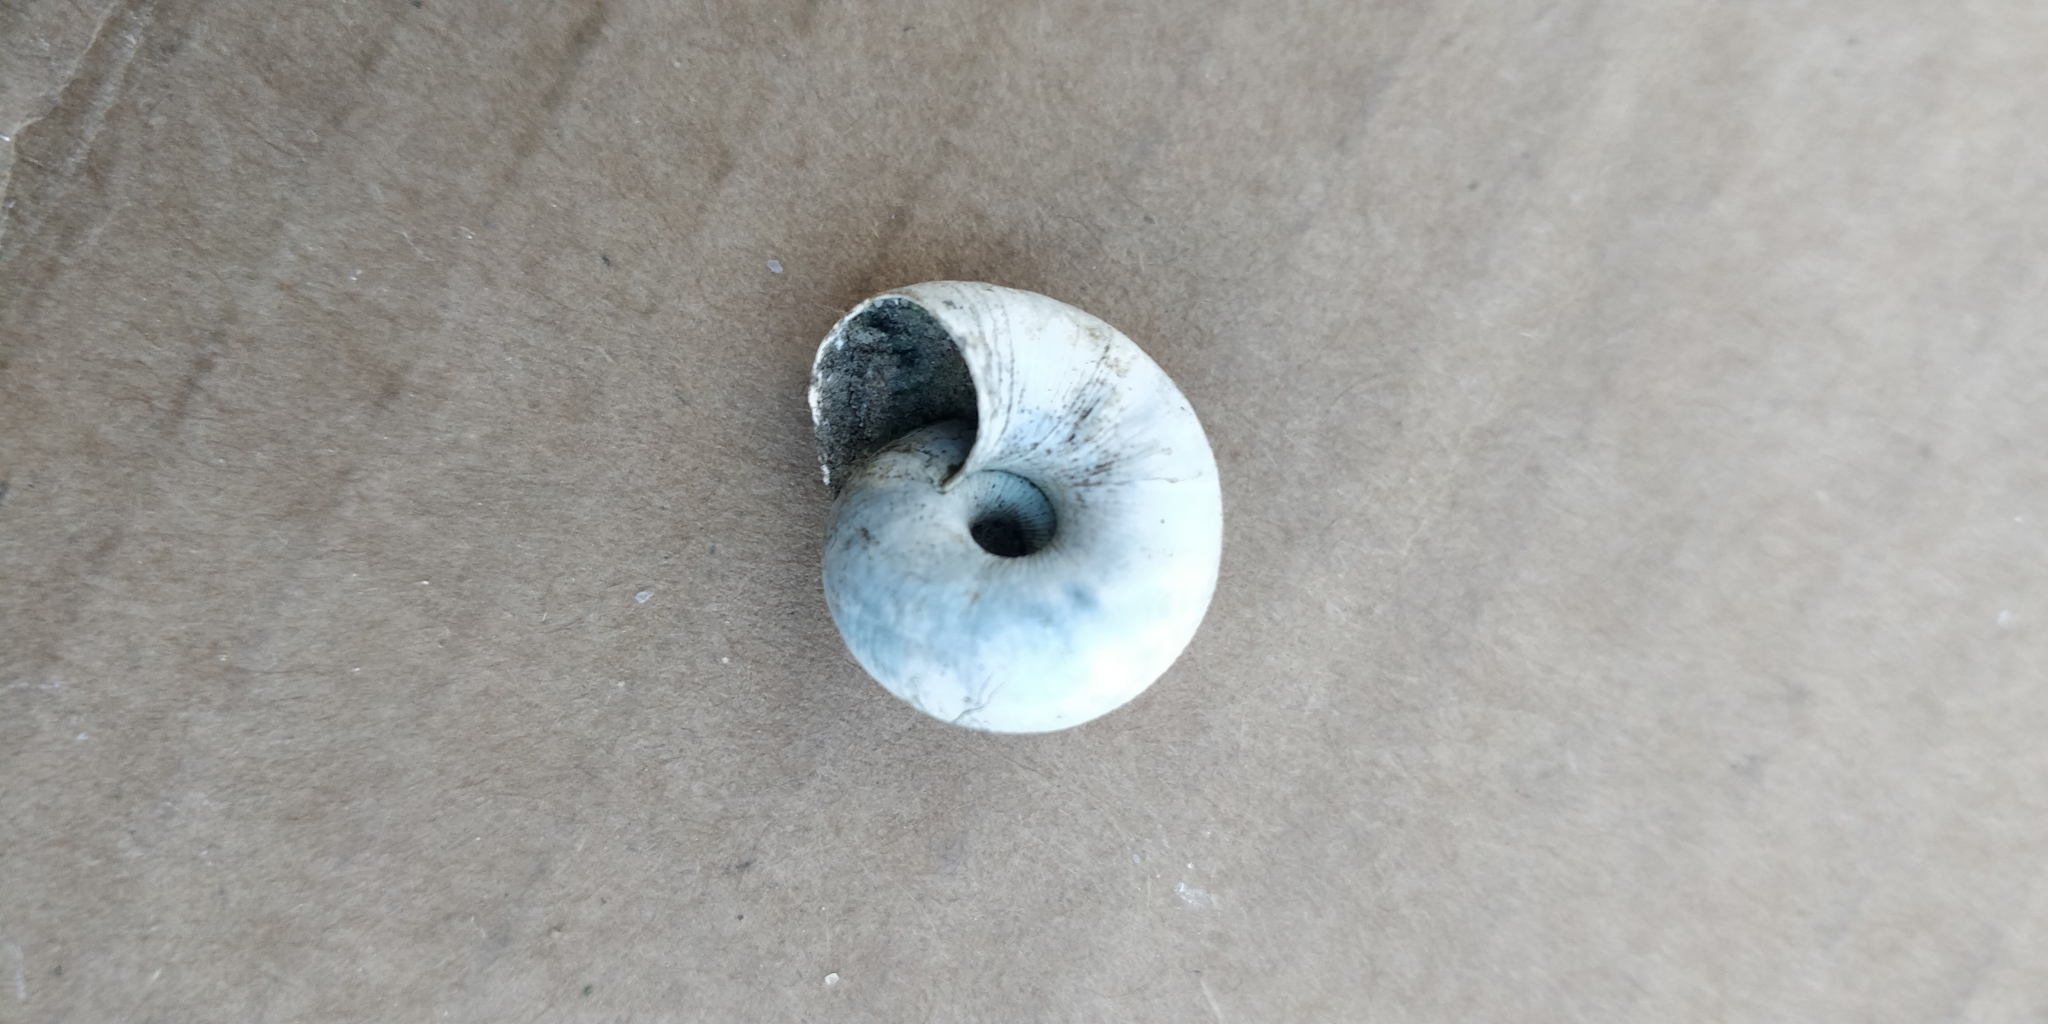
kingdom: Animalia
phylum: Mollusca
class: Gastropoda
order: Stylommatophora
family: Discidae
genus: Anguispira
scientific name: Anguispira alternata
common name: Flamed tigersnail
